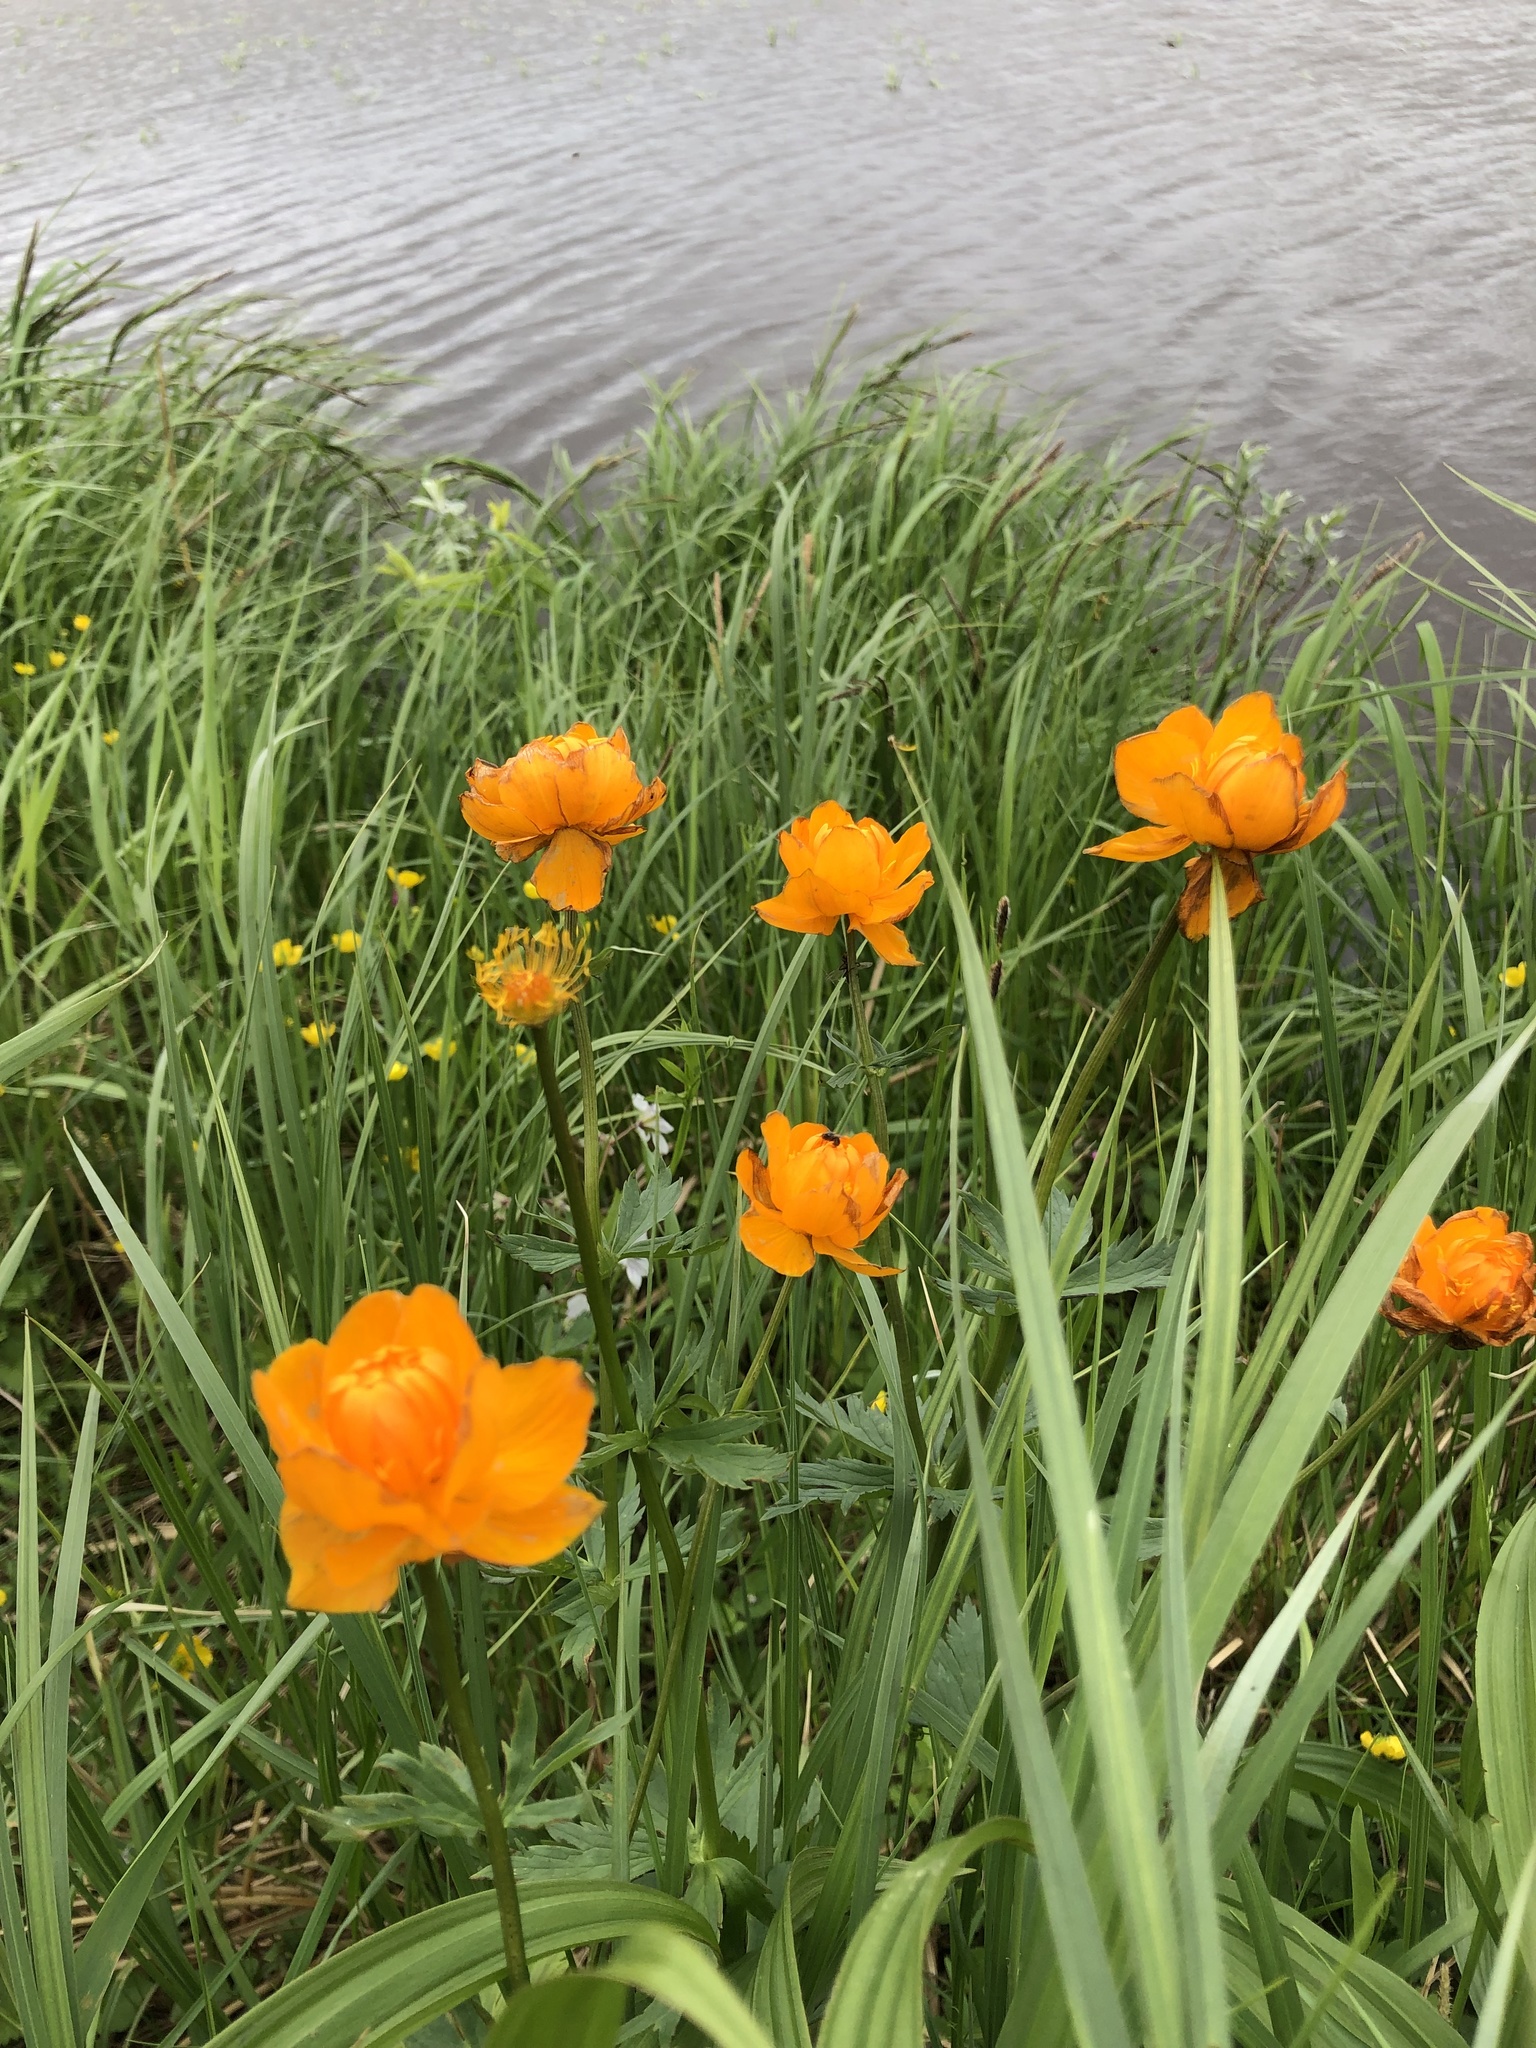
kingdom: Plantae
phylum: Tracheophyta
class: Magnoliopsida
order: Ranunculales
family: Ranunculaceae
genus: Trollius
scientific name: Trollius asiaticus
